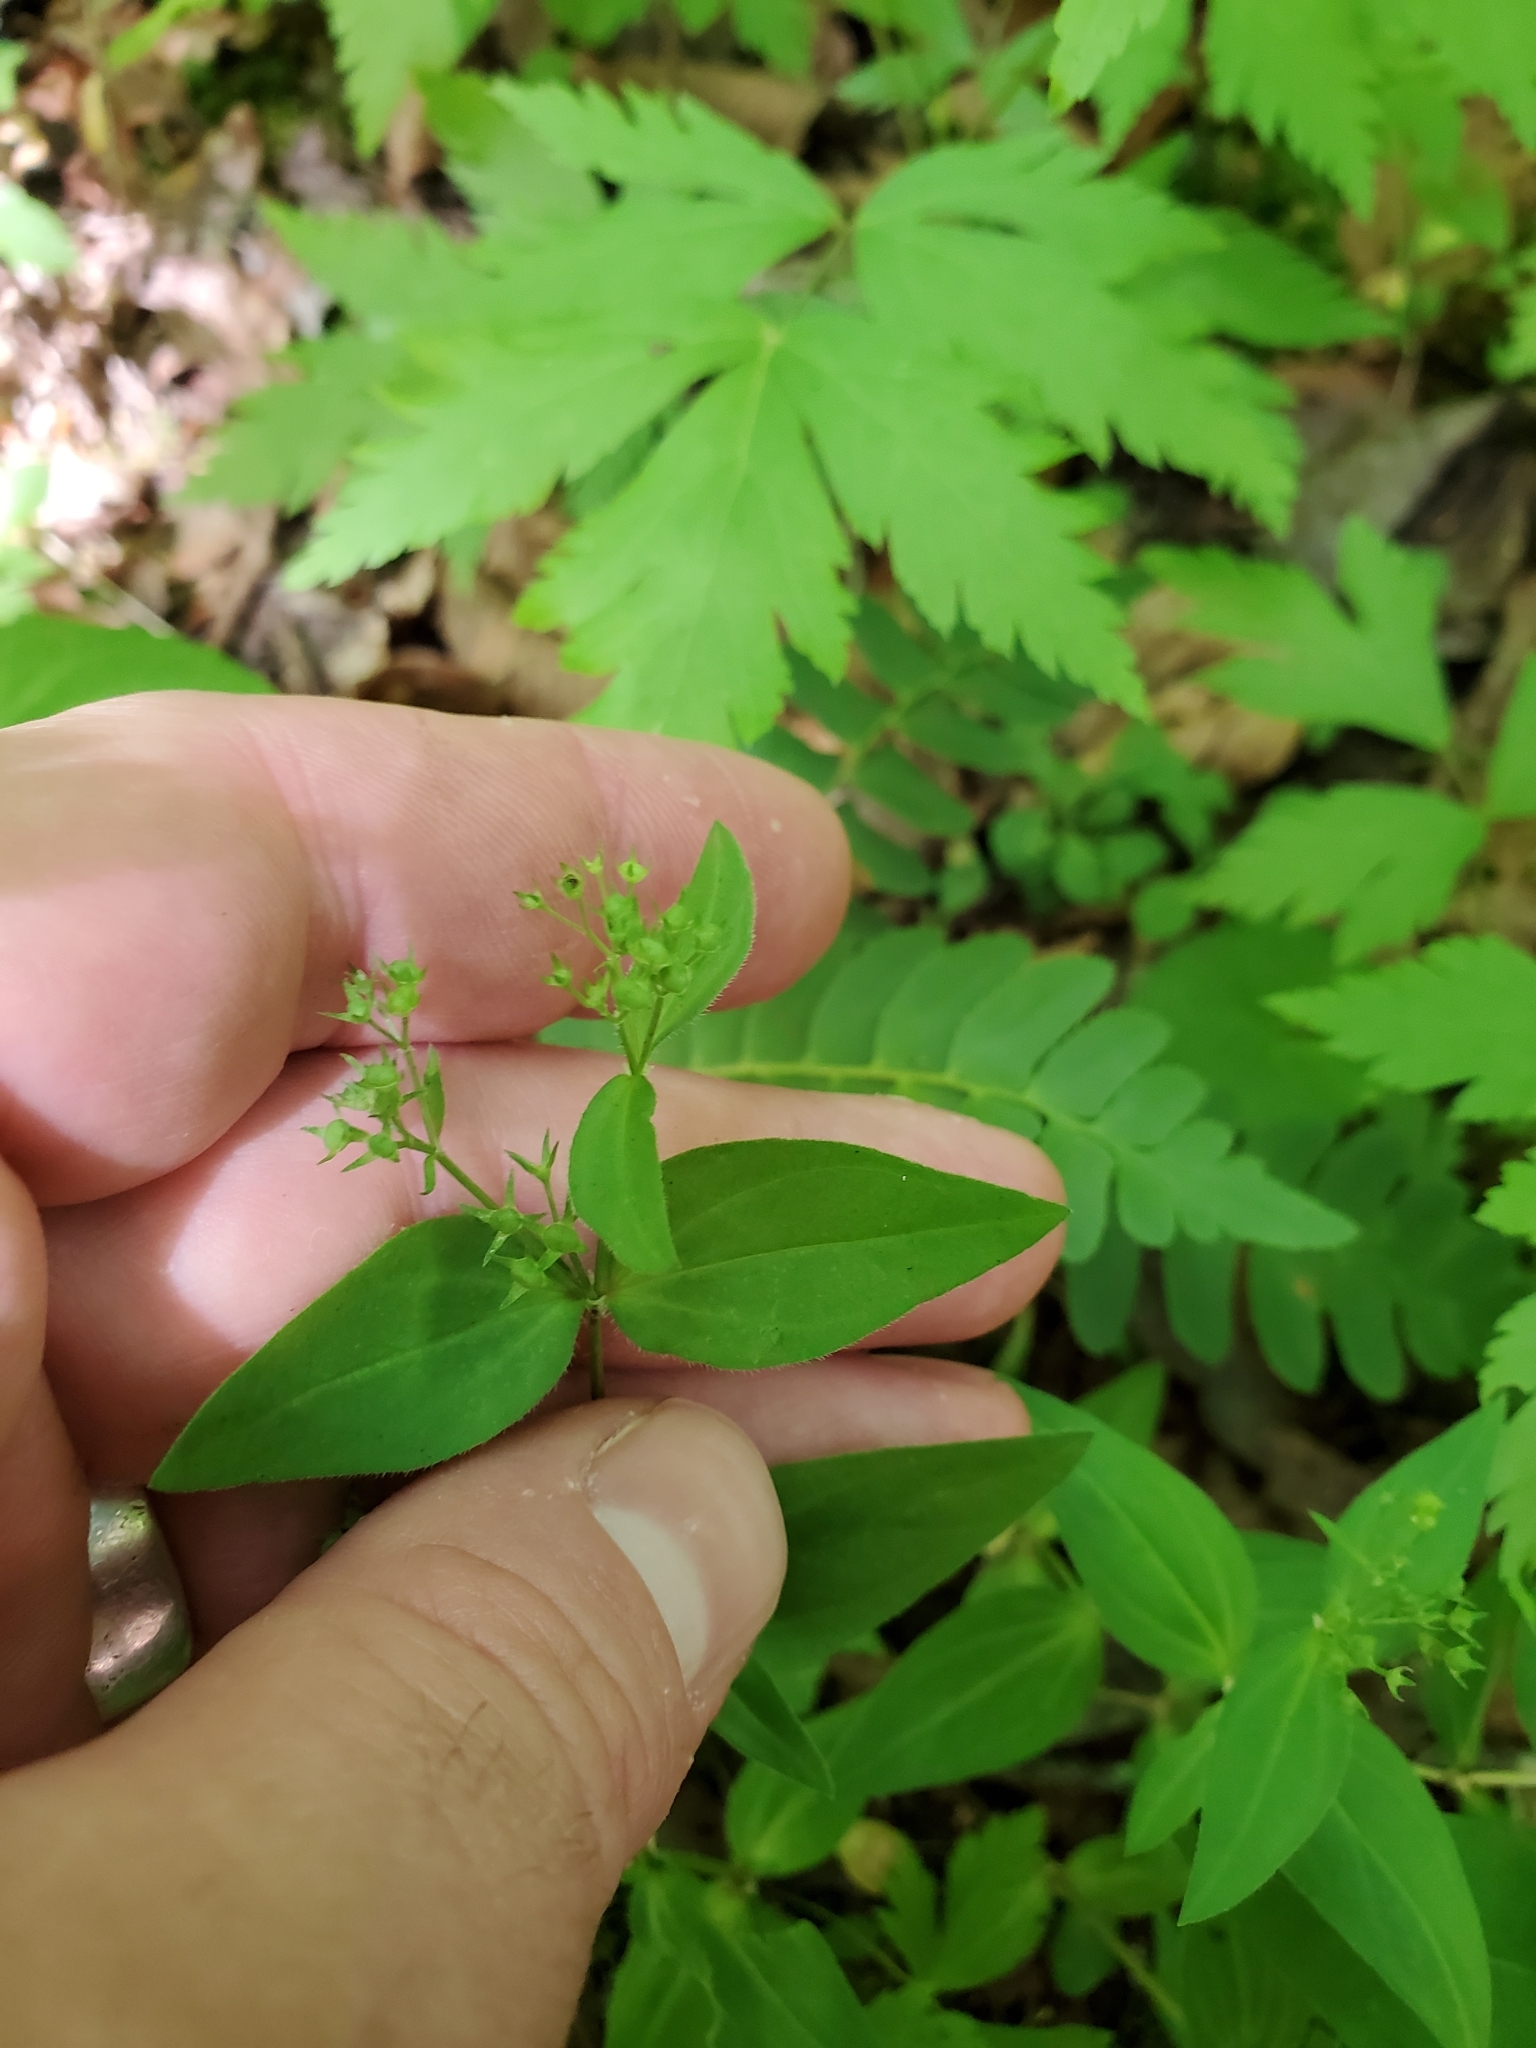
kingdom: Plantae
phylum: Tracheophyta
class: Magnoliopsida
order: Gentianales
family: Rubiaceae
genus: Houstonia
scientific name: Houstonia purpurea
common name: Summer bluet
